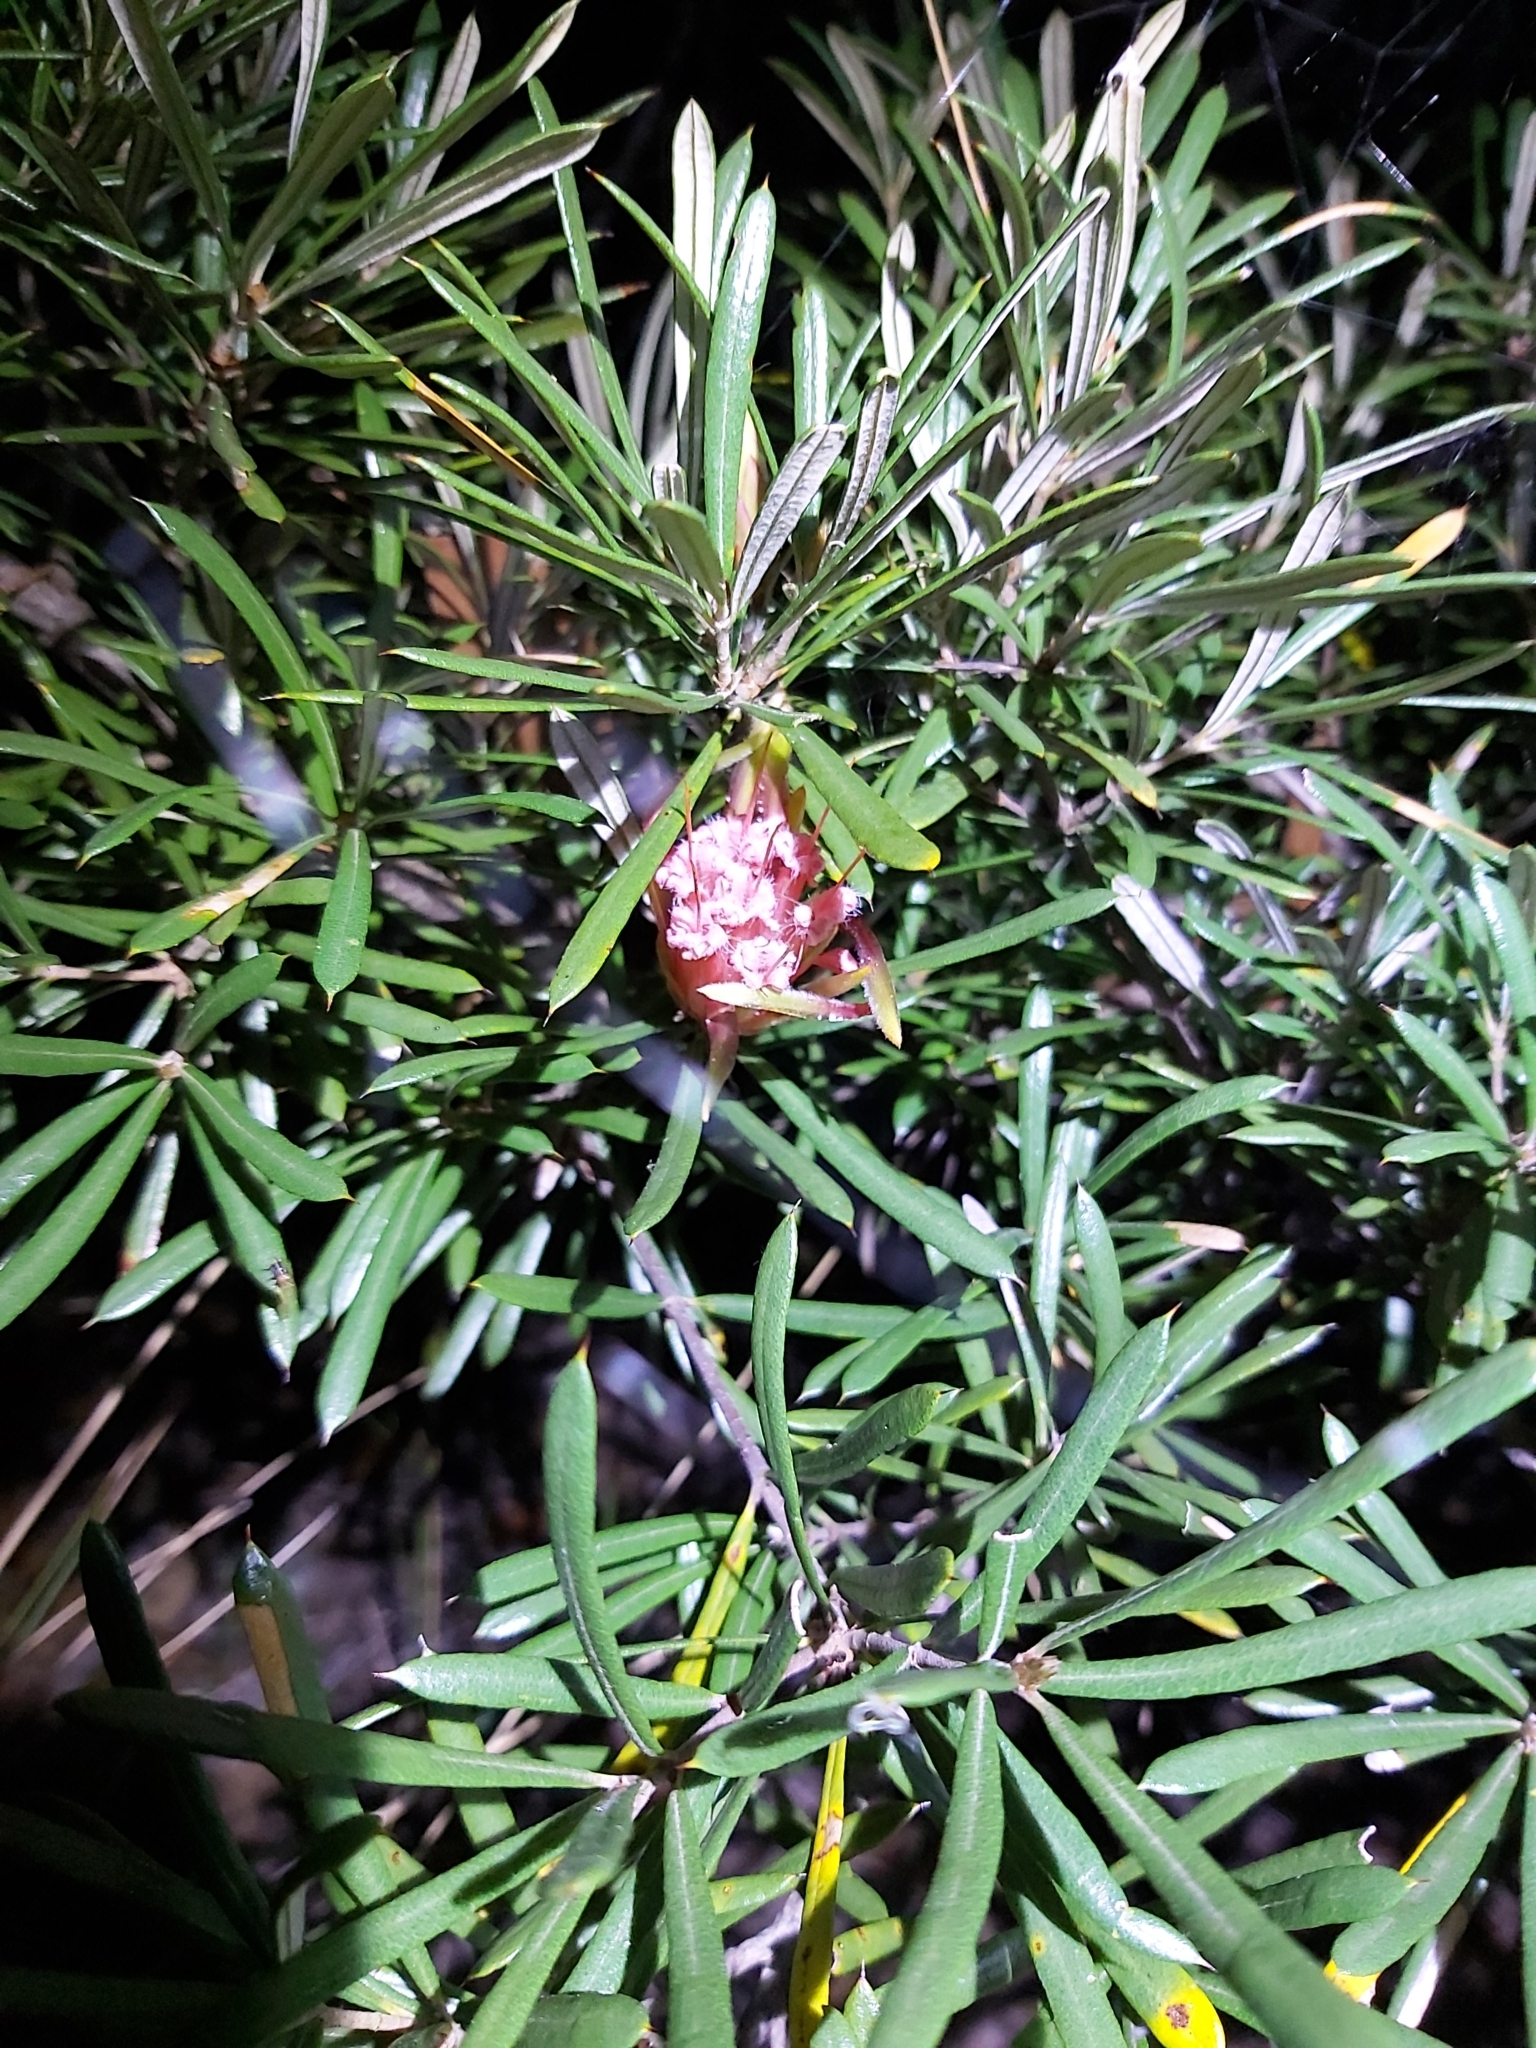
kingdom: Plantae
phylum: Tracheophyta
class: Magnoliopsida
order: Proteales
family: Proteaceae
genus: Lambertia
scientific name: Lambertia formosa
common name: Mountain-devil
